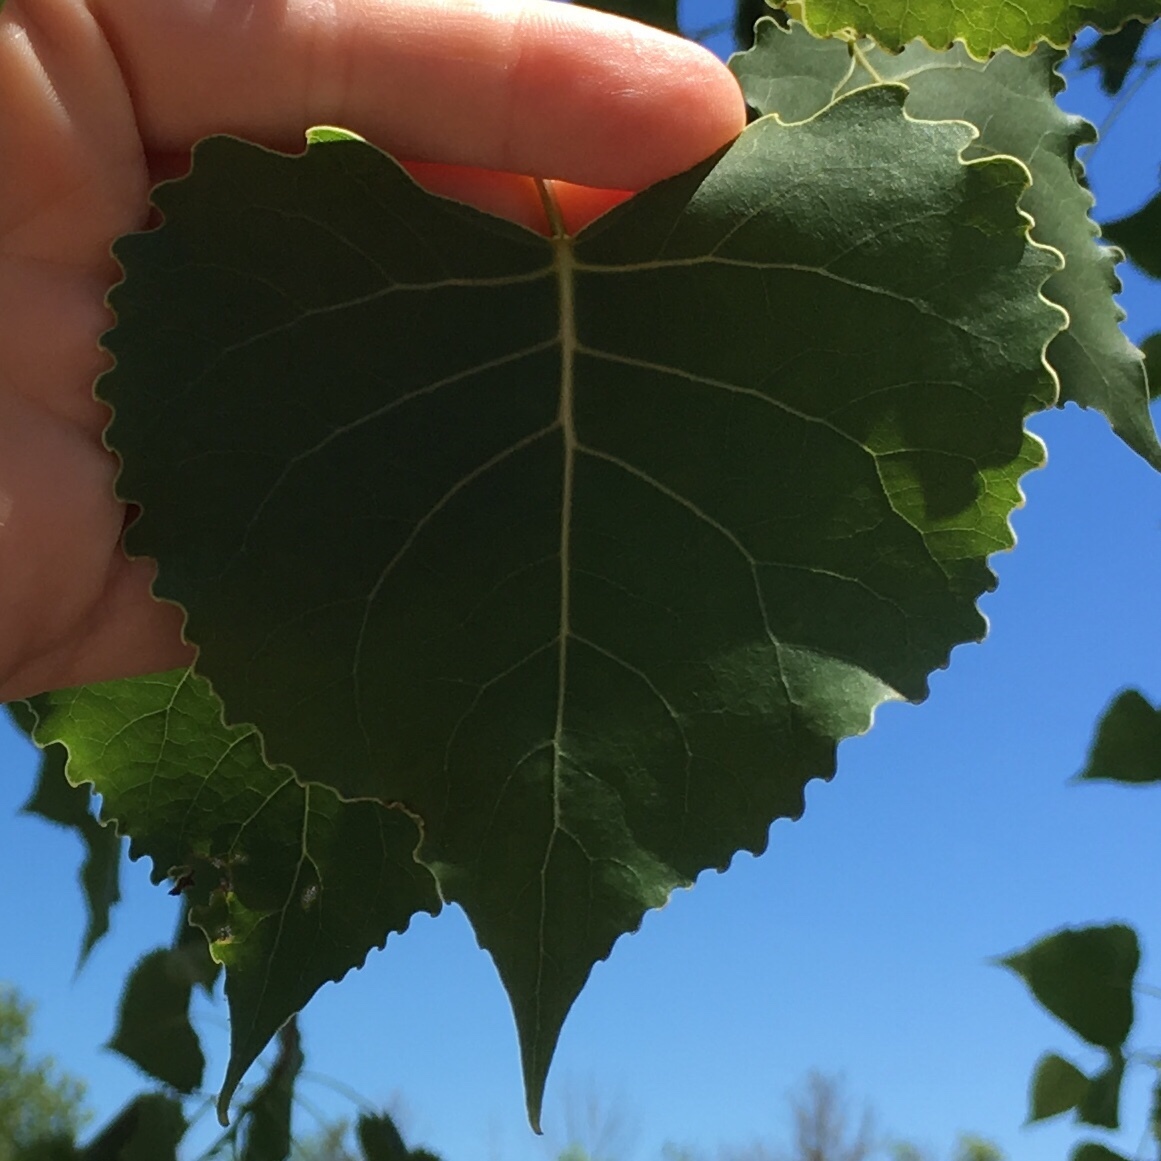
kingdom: Plantae
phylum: Tracheophyta
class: Magnoliopsida
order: Malpighiales
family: Salicaceae
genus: Populus
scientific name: Populus deltoides
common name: Eastern cottonwood
